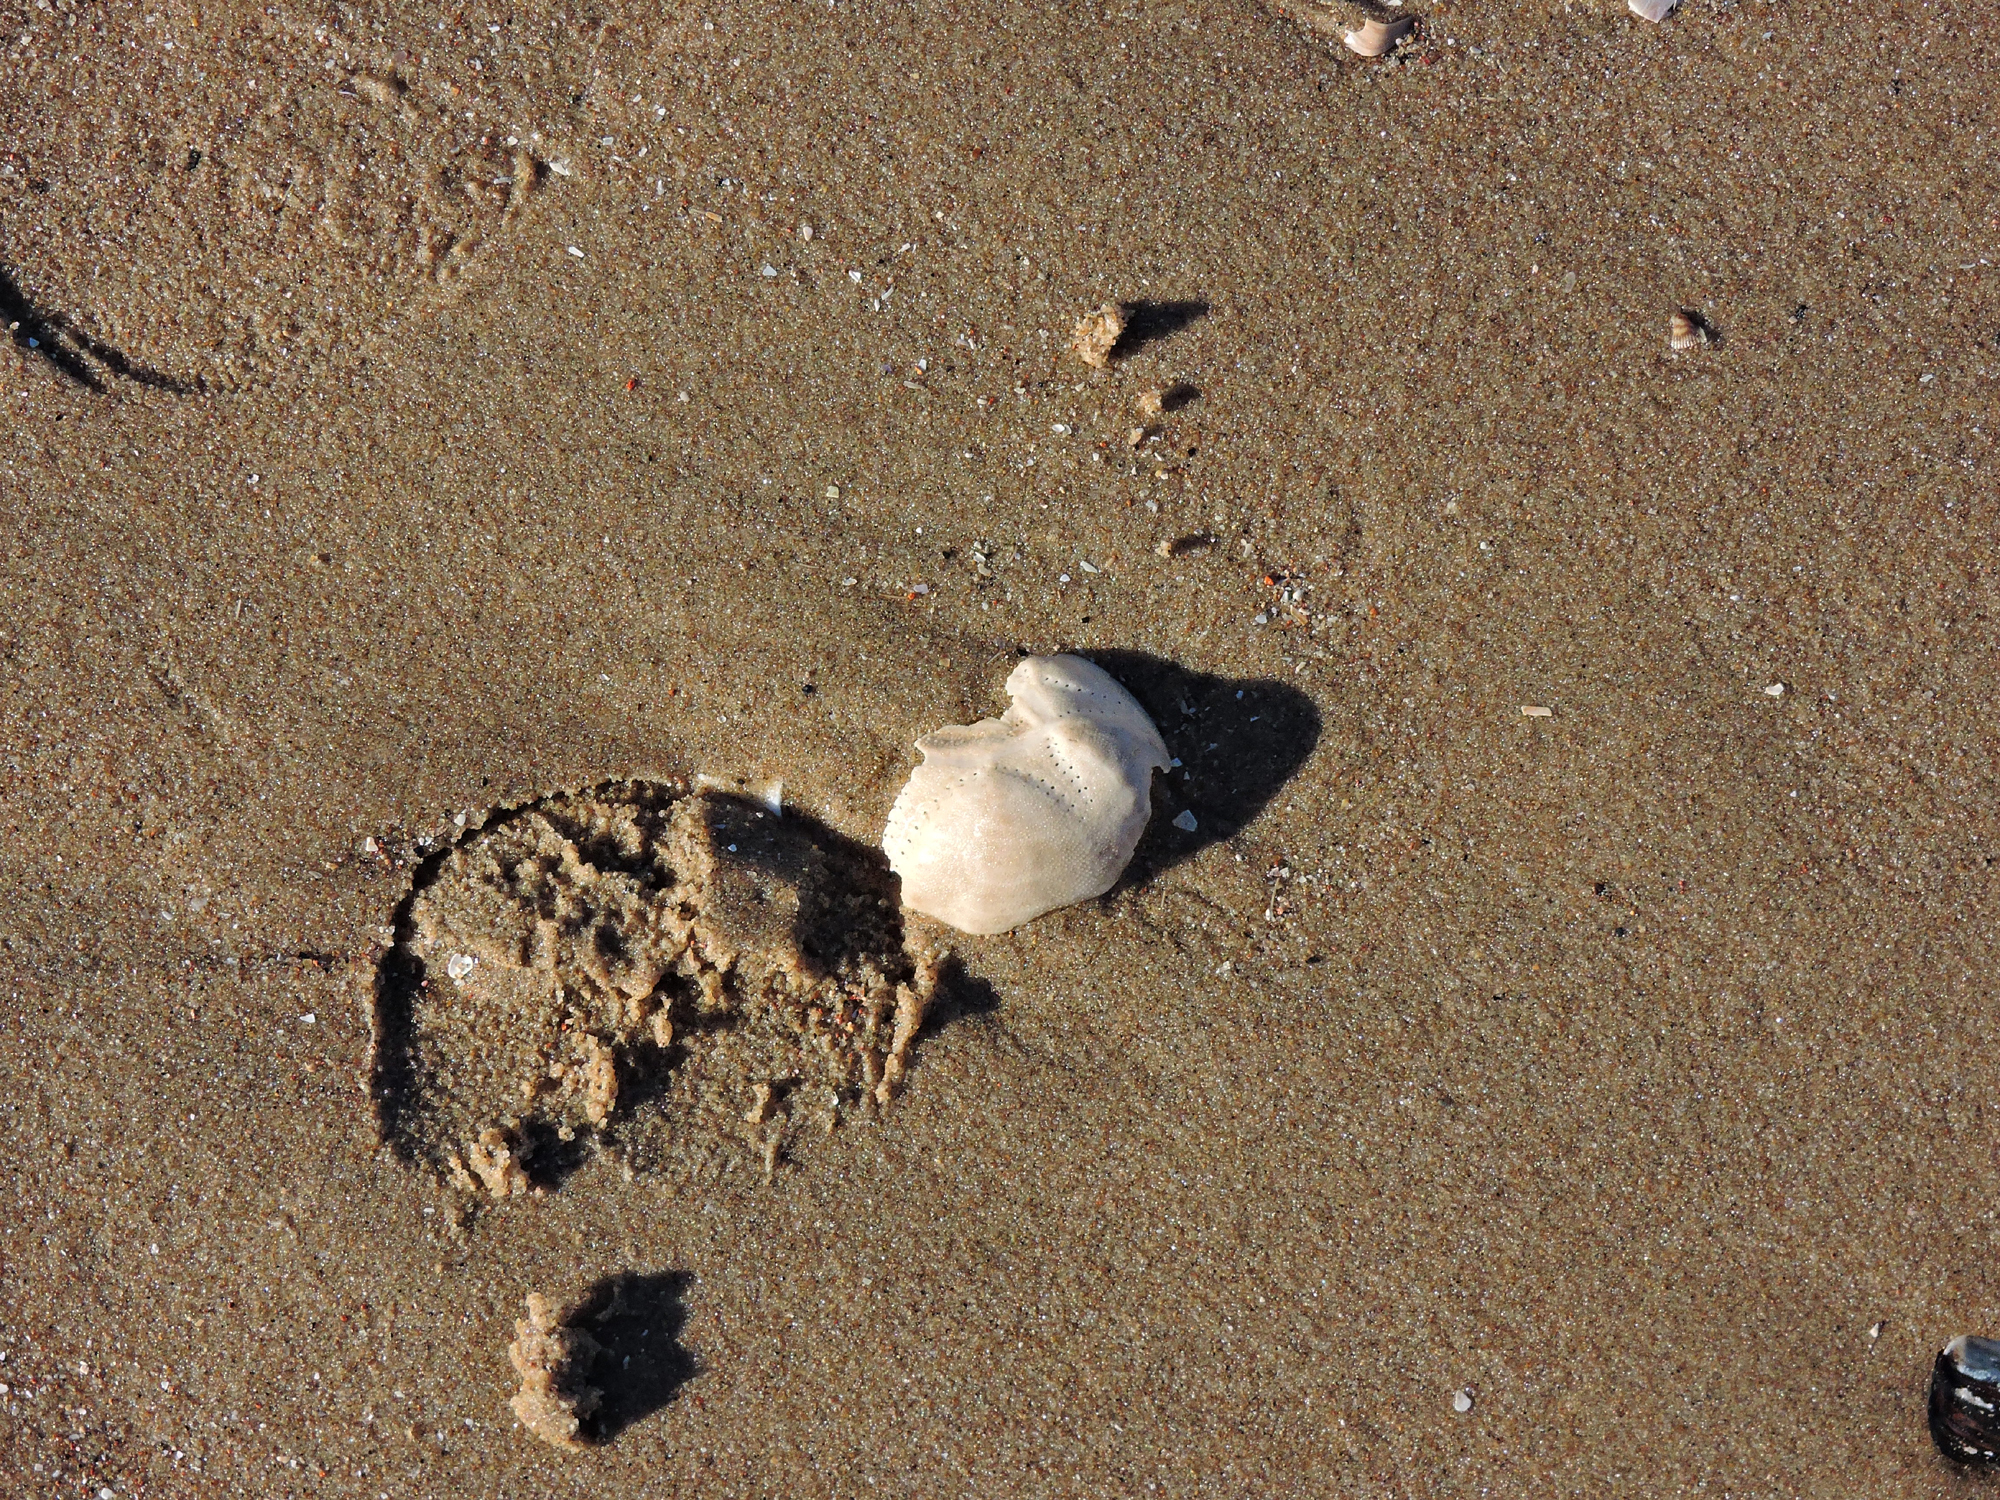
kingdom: Animalia
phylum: Echinodermata
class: Echinoidea
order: Spatangoida
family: Loveniidae
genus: Echinocardium
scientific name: Echinocardium cordatum
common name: Heart-urchin
